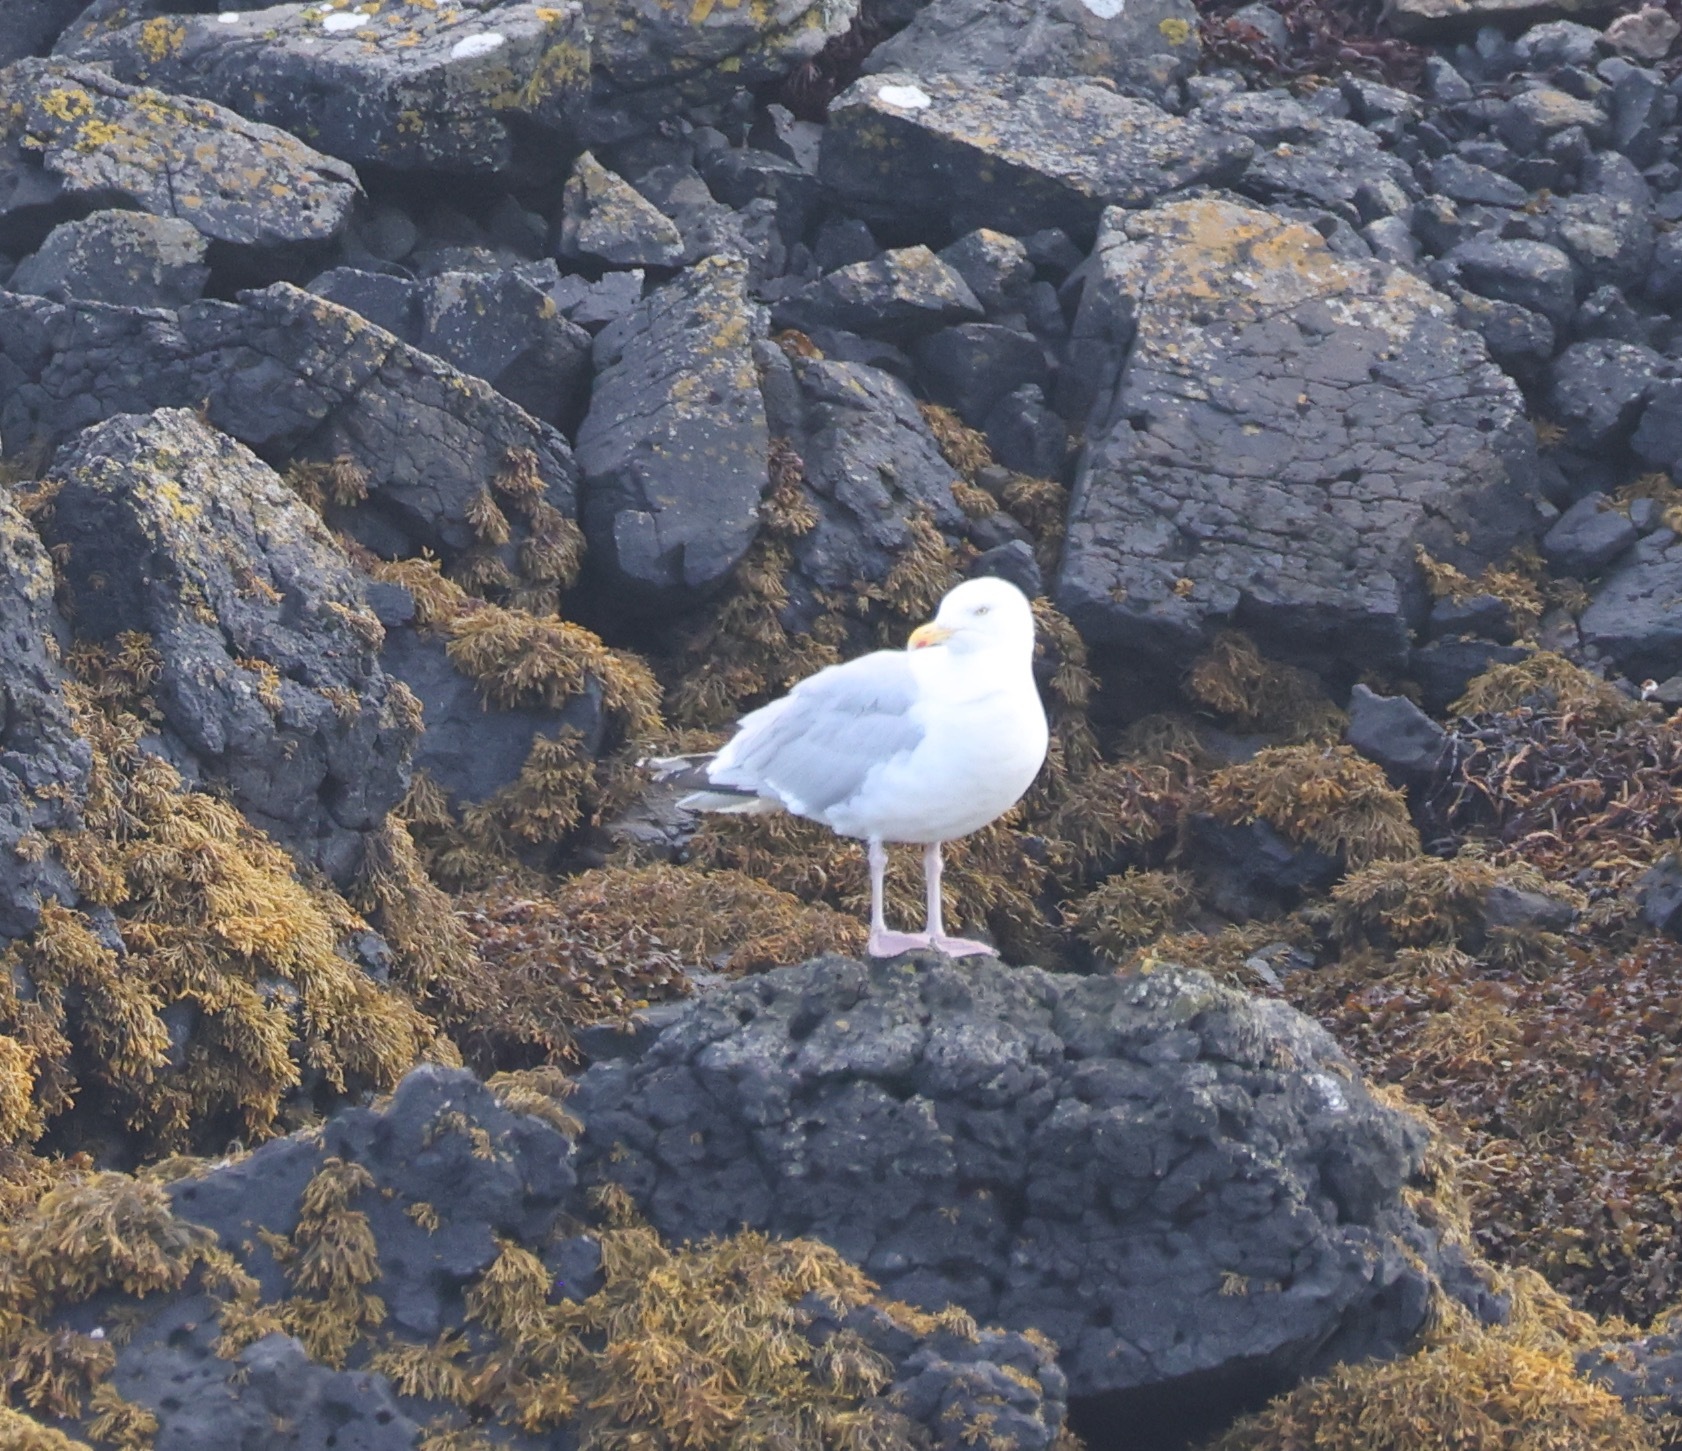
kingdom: Animalia
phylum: Chordata
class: Aves
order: Charadriiformes
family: Laridae
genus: Larus
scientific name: Larus argentatus
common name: Herring gull
